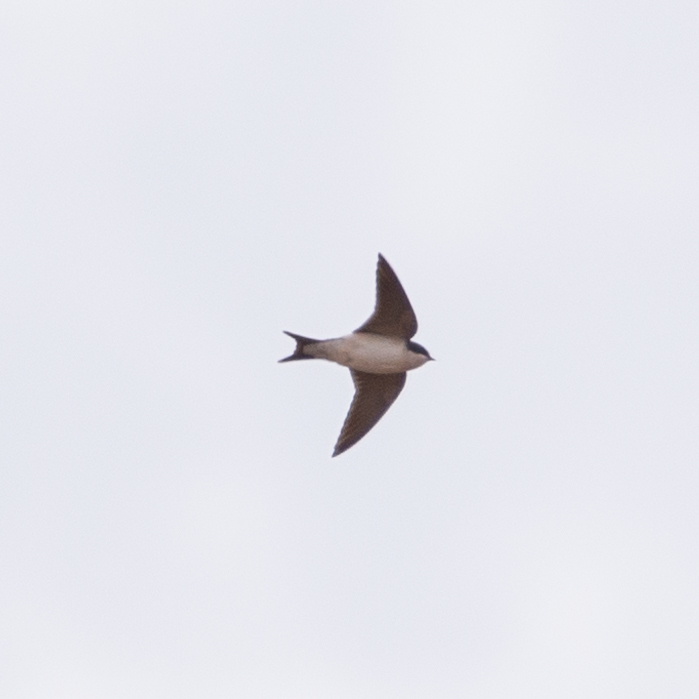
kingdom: Animalia
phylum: Chordata
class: Aves
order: Passeriformes
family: Hirundinidae
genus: Delichon
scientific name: Delichon urbicum
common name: Common house martin
